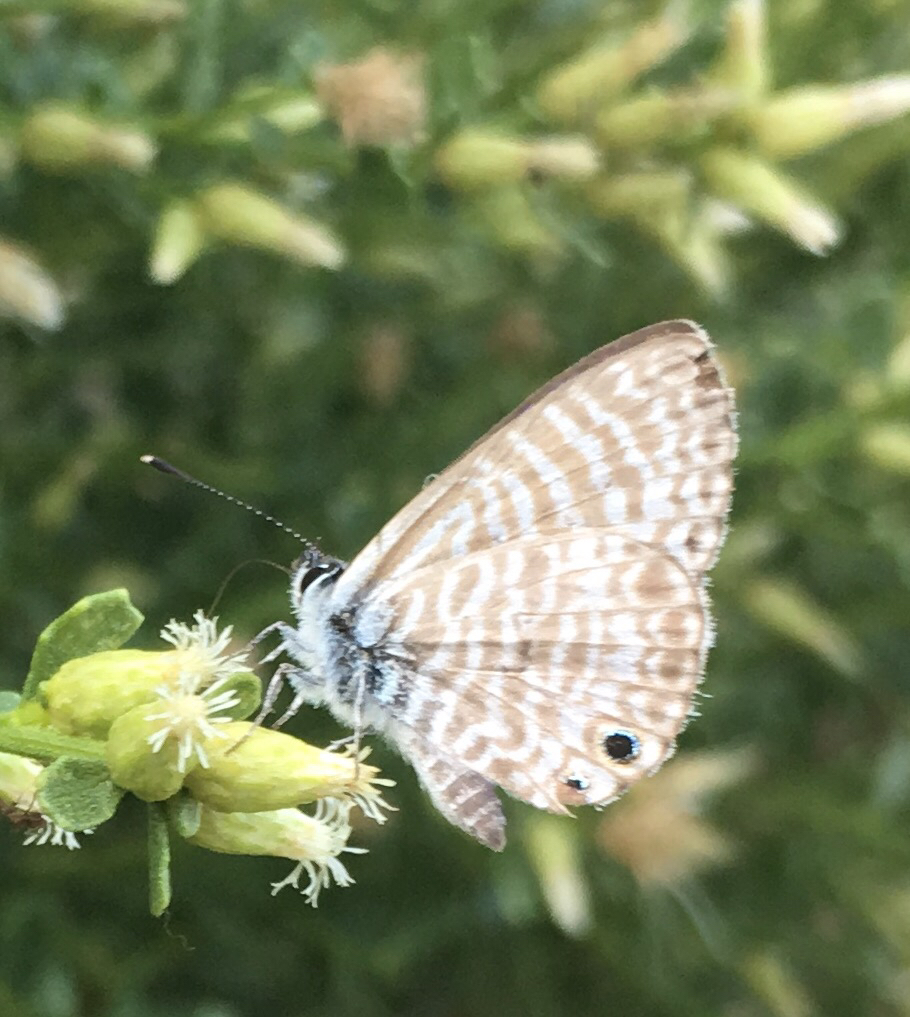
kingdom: Animalia
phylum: Arthropoda
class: Insecta
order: Lepidoptera
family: Lycaenidae
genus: Leptotes
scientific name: Leptotes marina
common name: Marine blue
